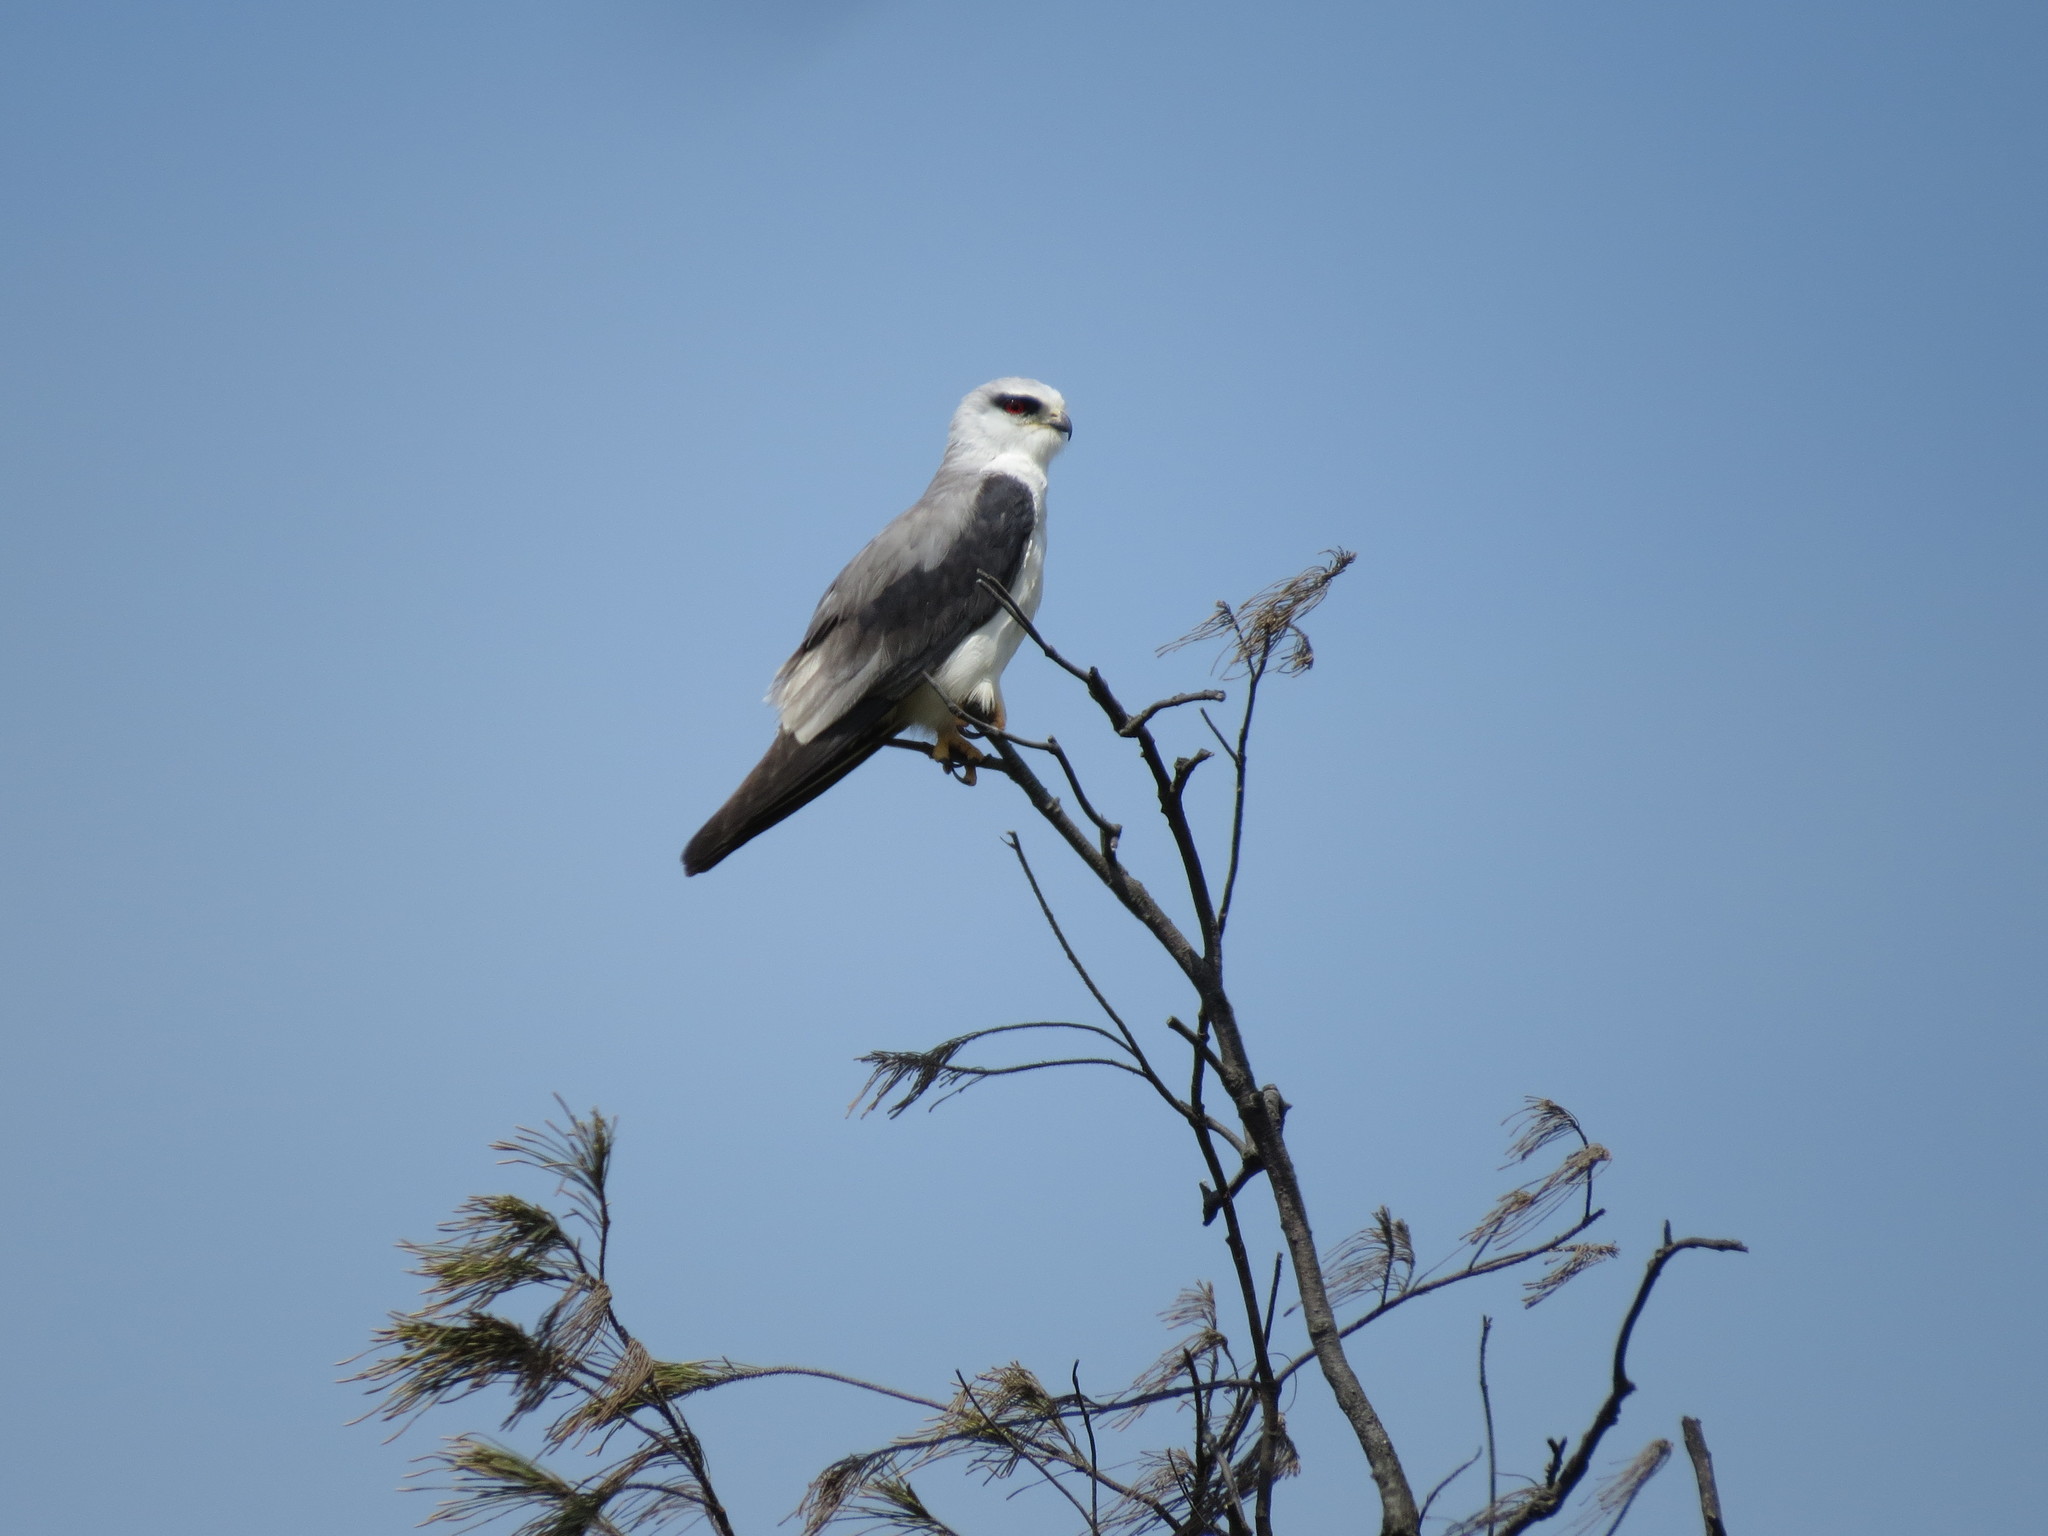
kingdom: Animalia
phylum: Chordata
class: Aves
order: Accipitriformes
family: Accipitridae
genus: Elanus
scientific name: Elanus caeruleus
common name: Black-winged kite
